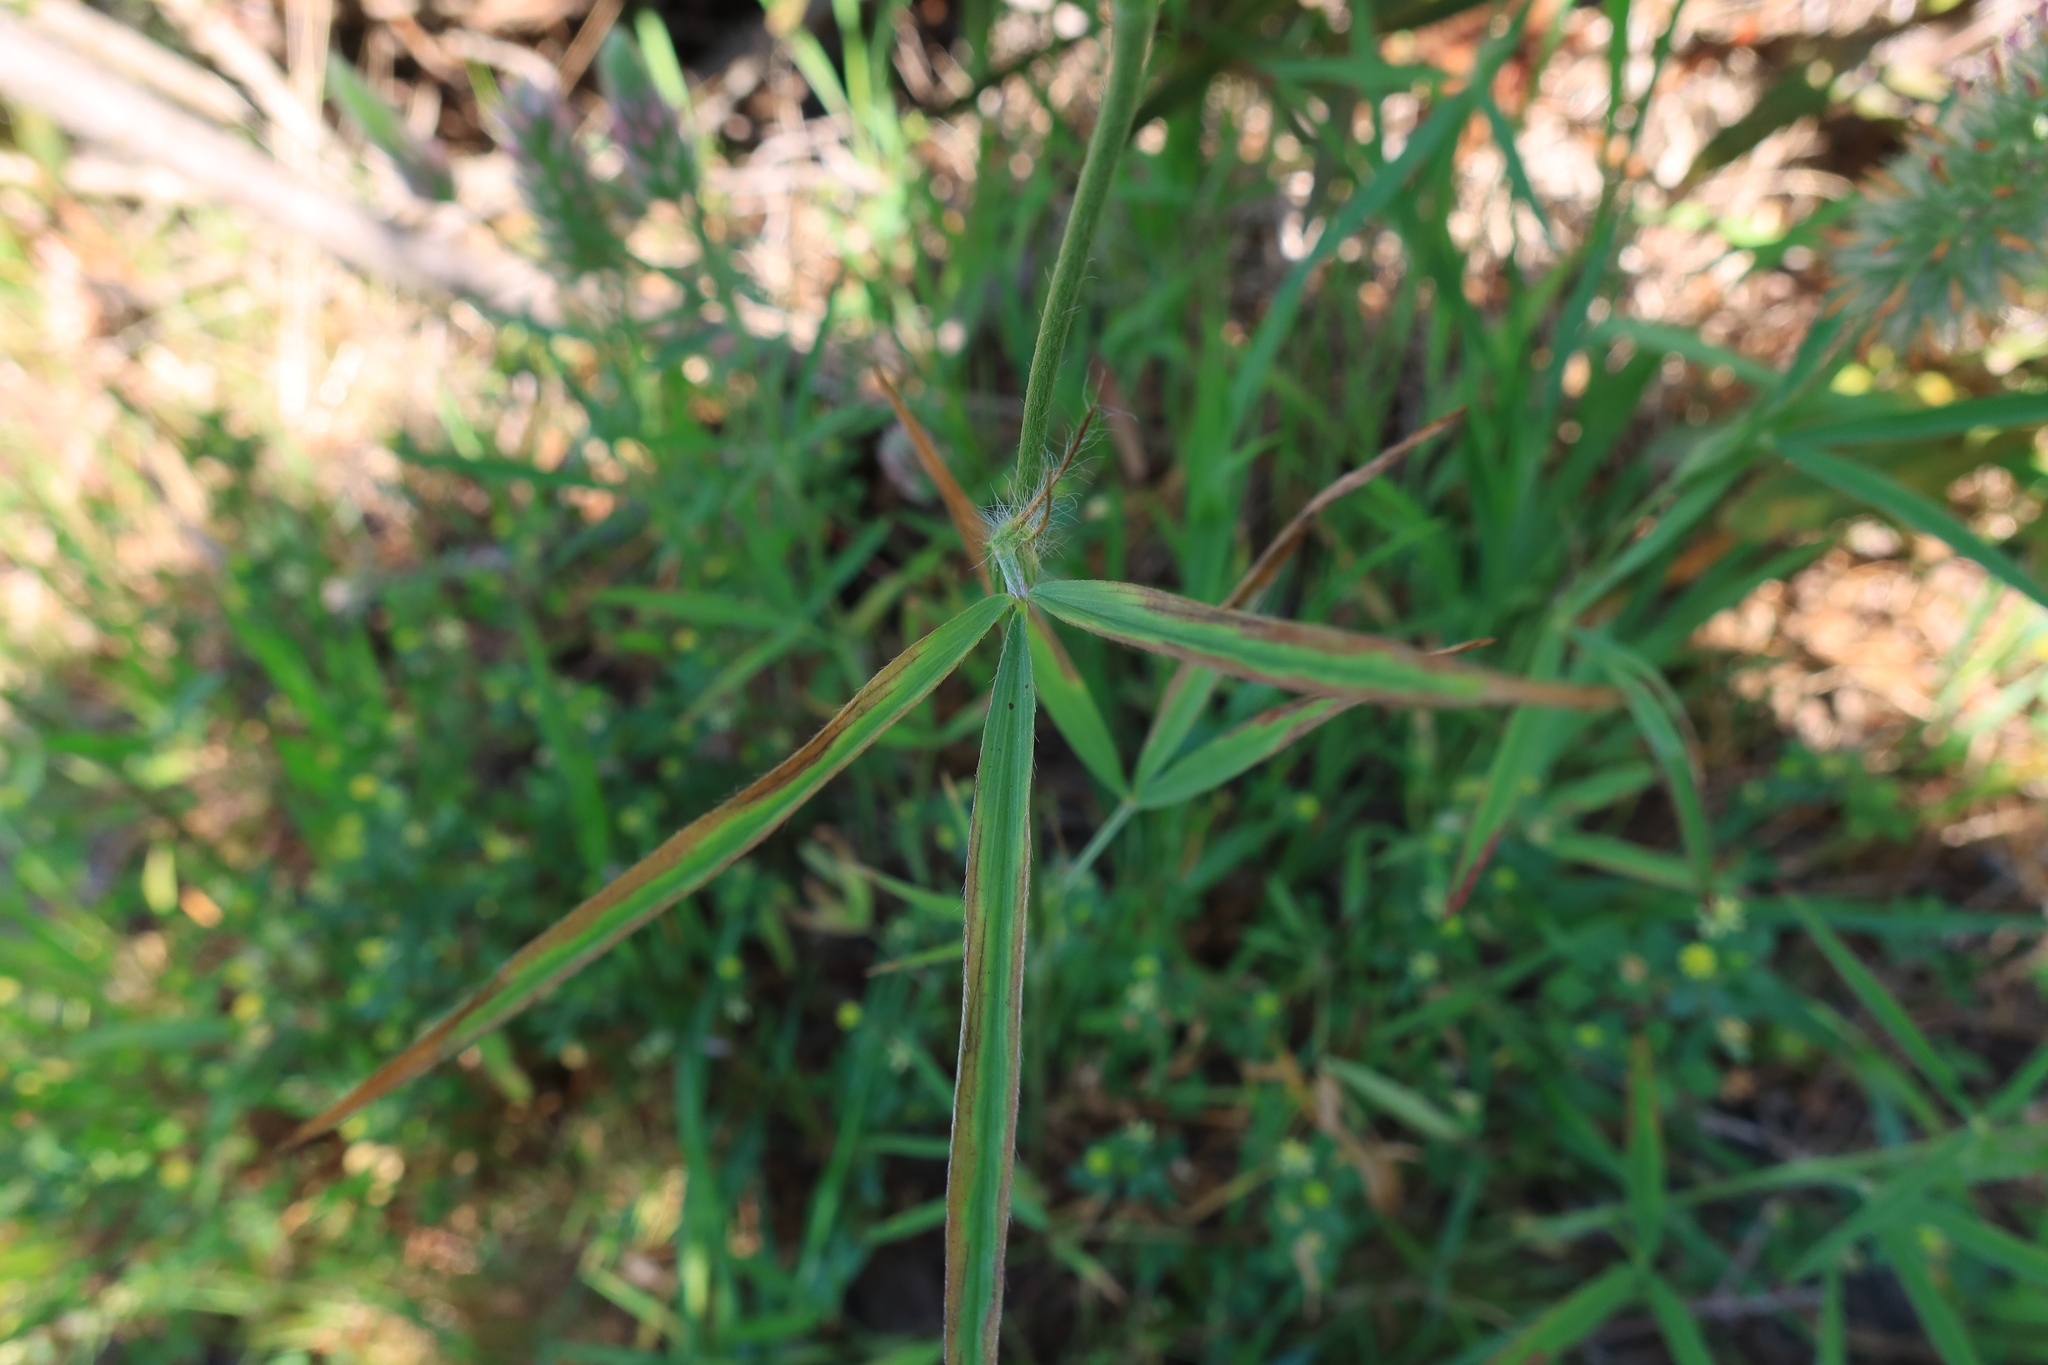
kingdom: Plantae
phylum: Tracheophyta
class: Magnoliopsida
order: Fabales
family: Fabaceae
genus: Trifolium
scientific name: Trifolium angustifolium
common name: Narrow clover
